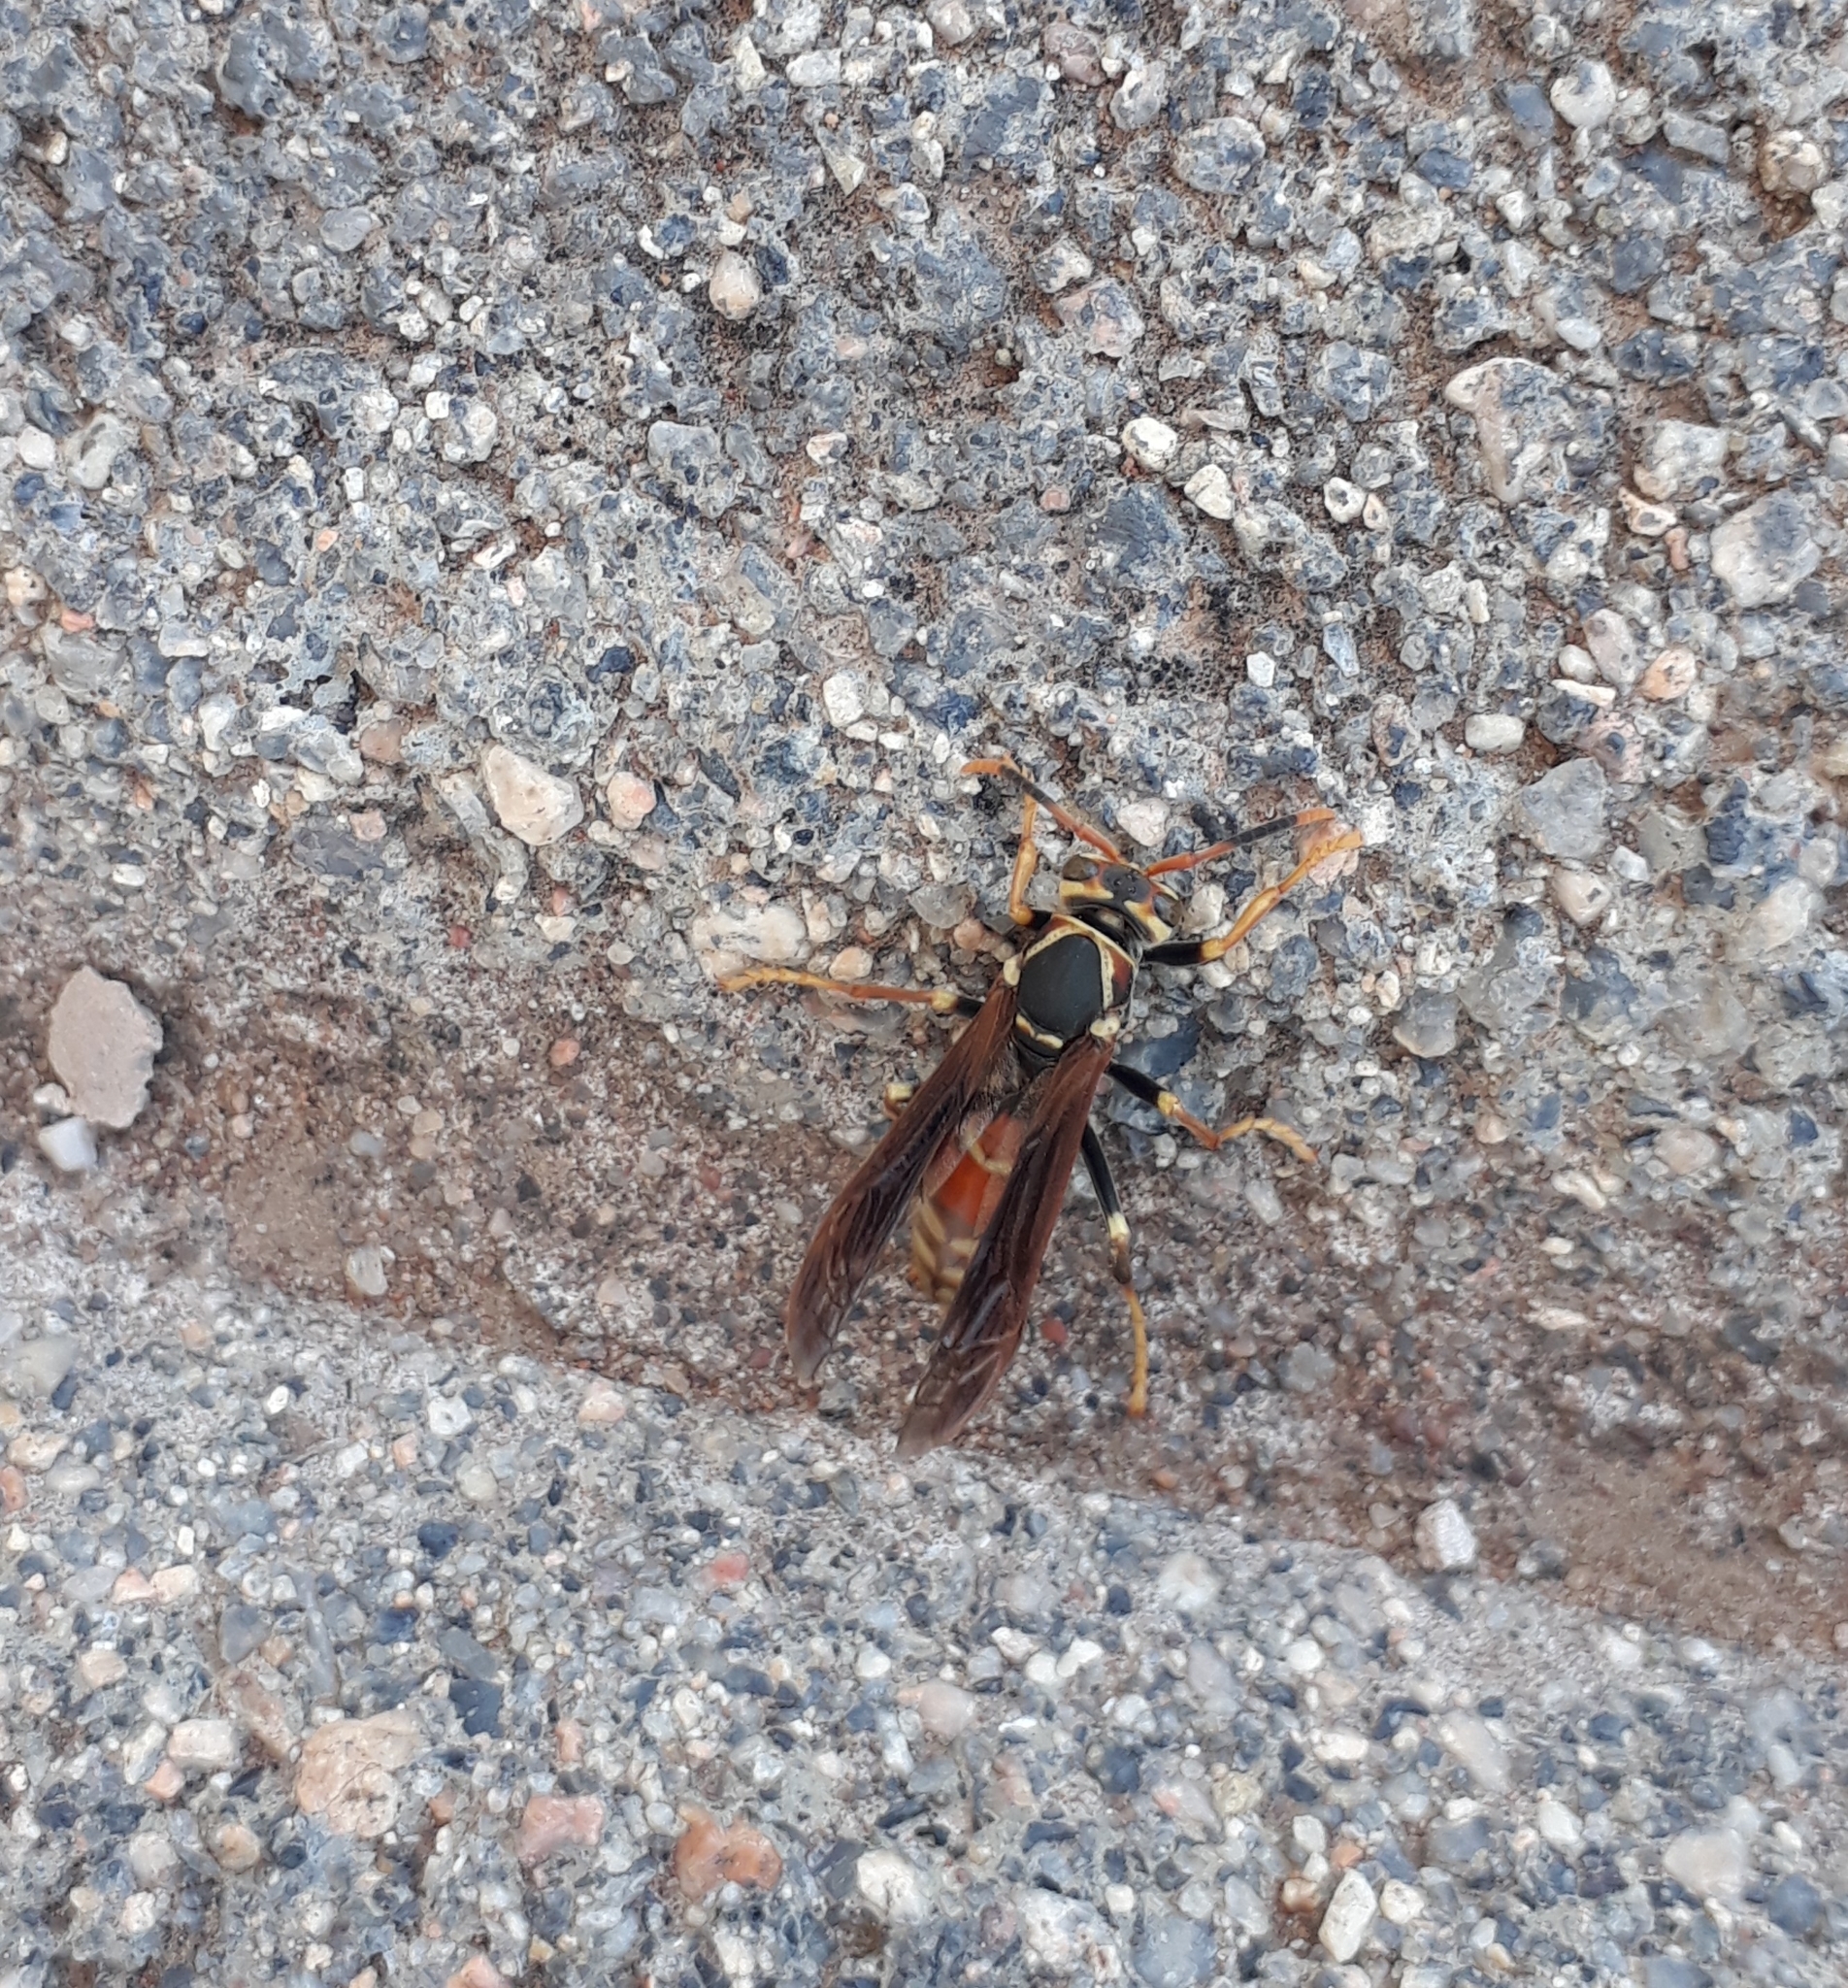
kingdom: Animalia
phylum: Arthropoda
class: Insecta
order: Hymenoptera
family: Eumenidae
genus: Polistes
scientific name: Polistes buyssoni
